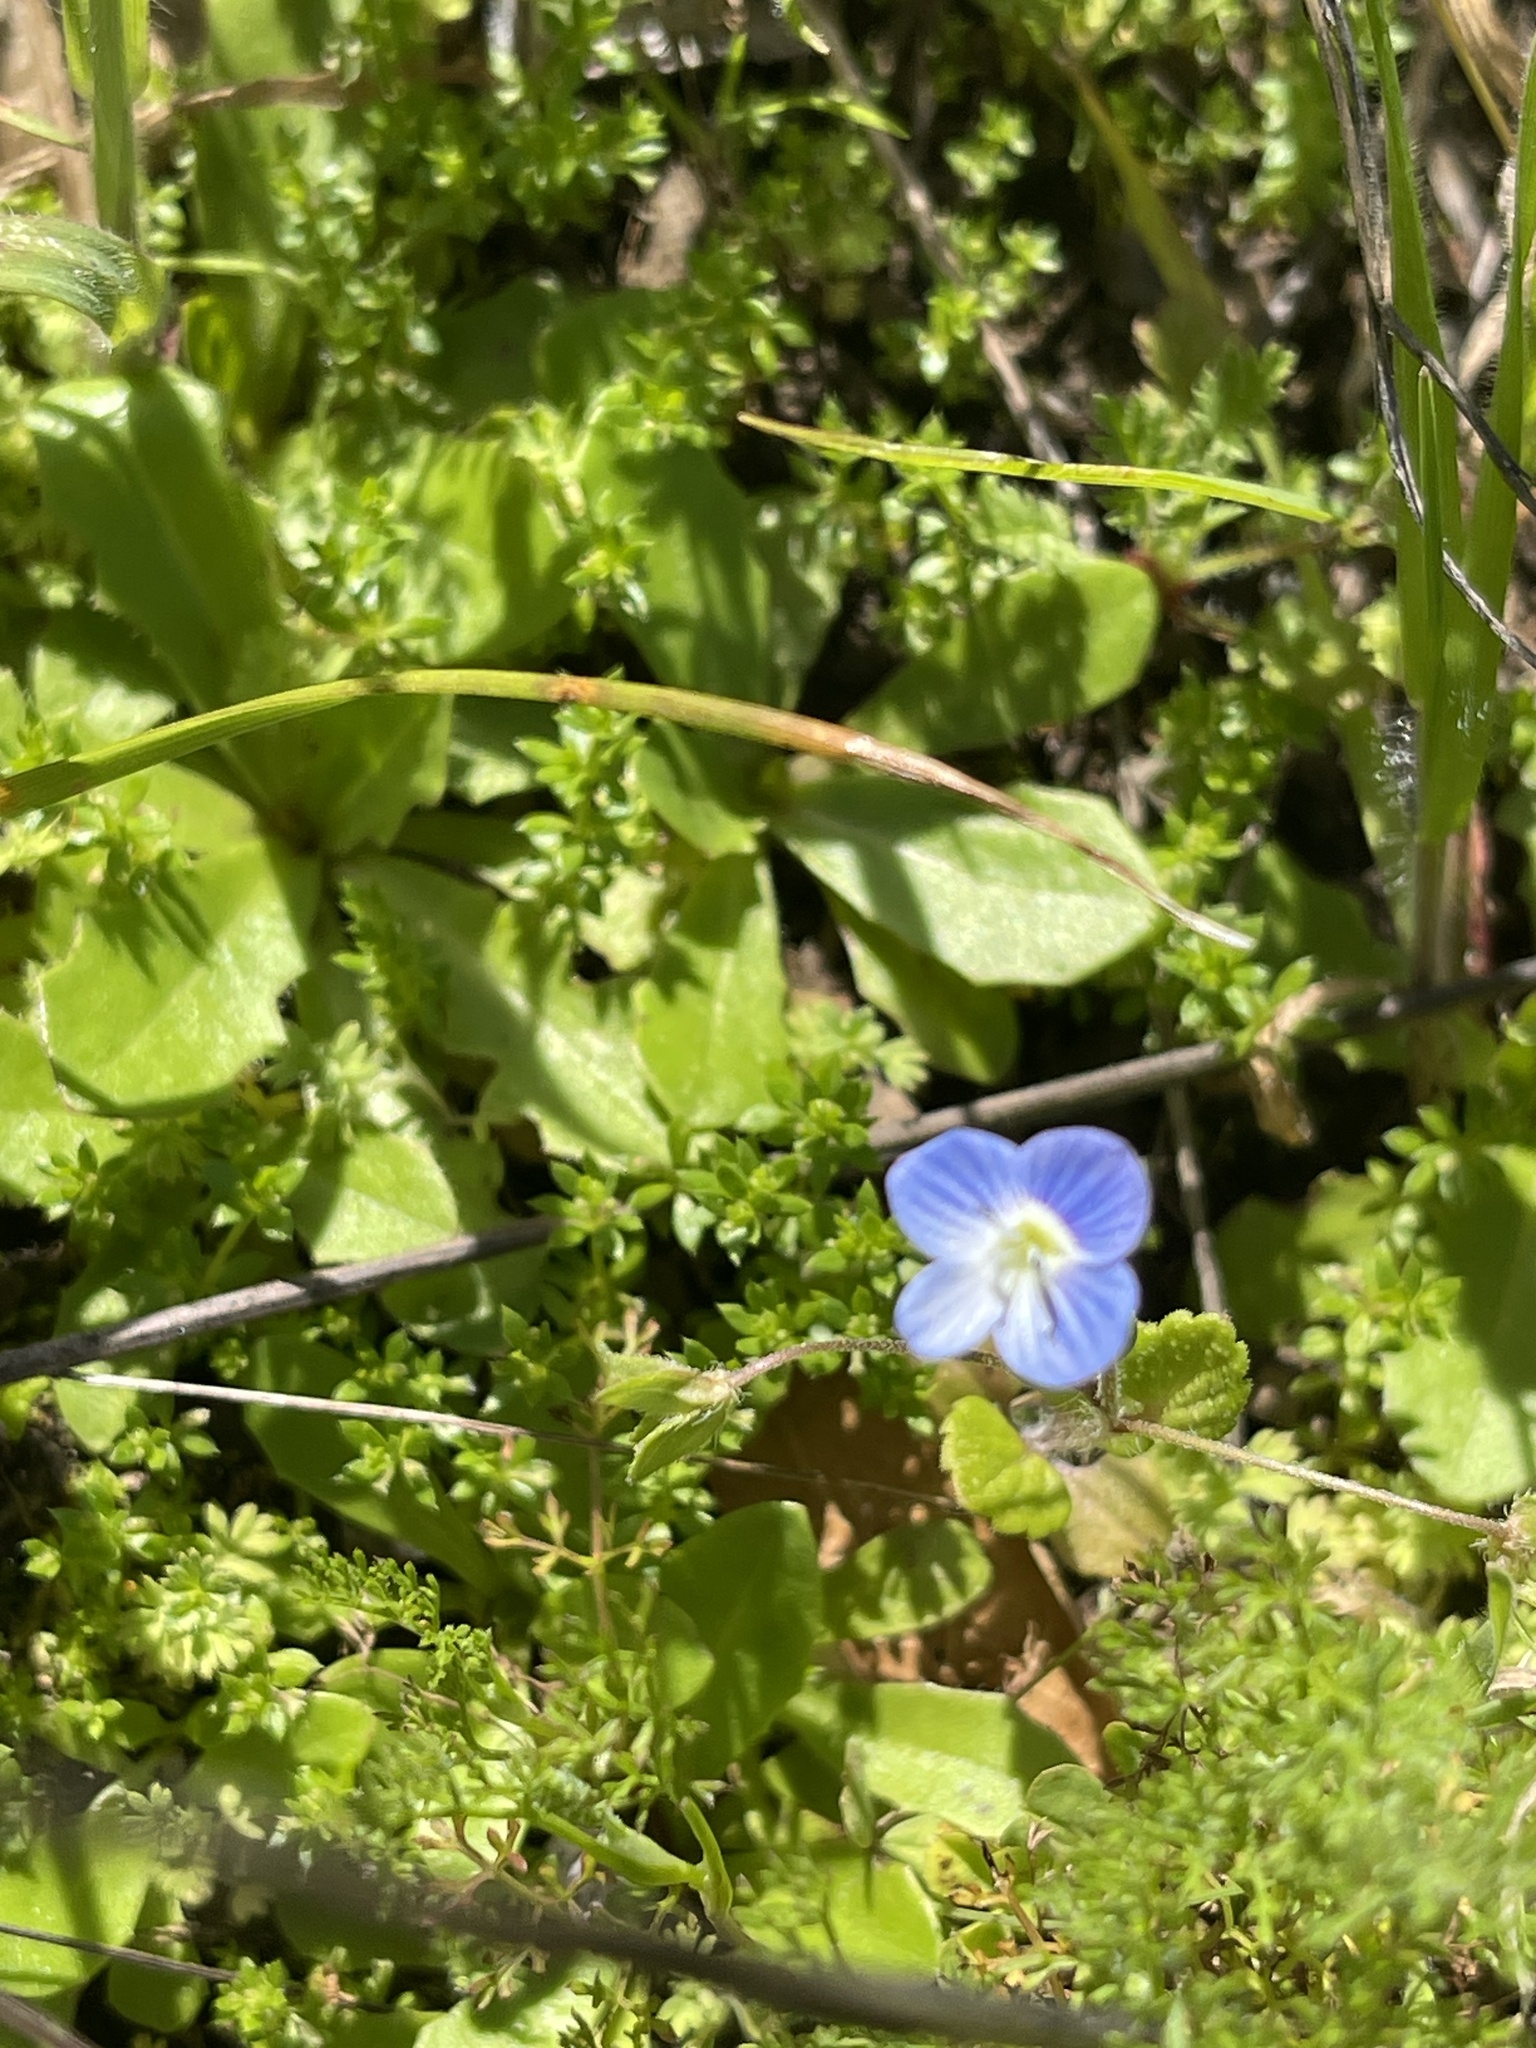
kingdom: Plantae
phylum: Tracheophyta
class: Magnoliopsida
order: Lamiales
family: Plantaginaceae
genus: Veronica
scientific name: Veronica persica
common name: Common field-speedwell
